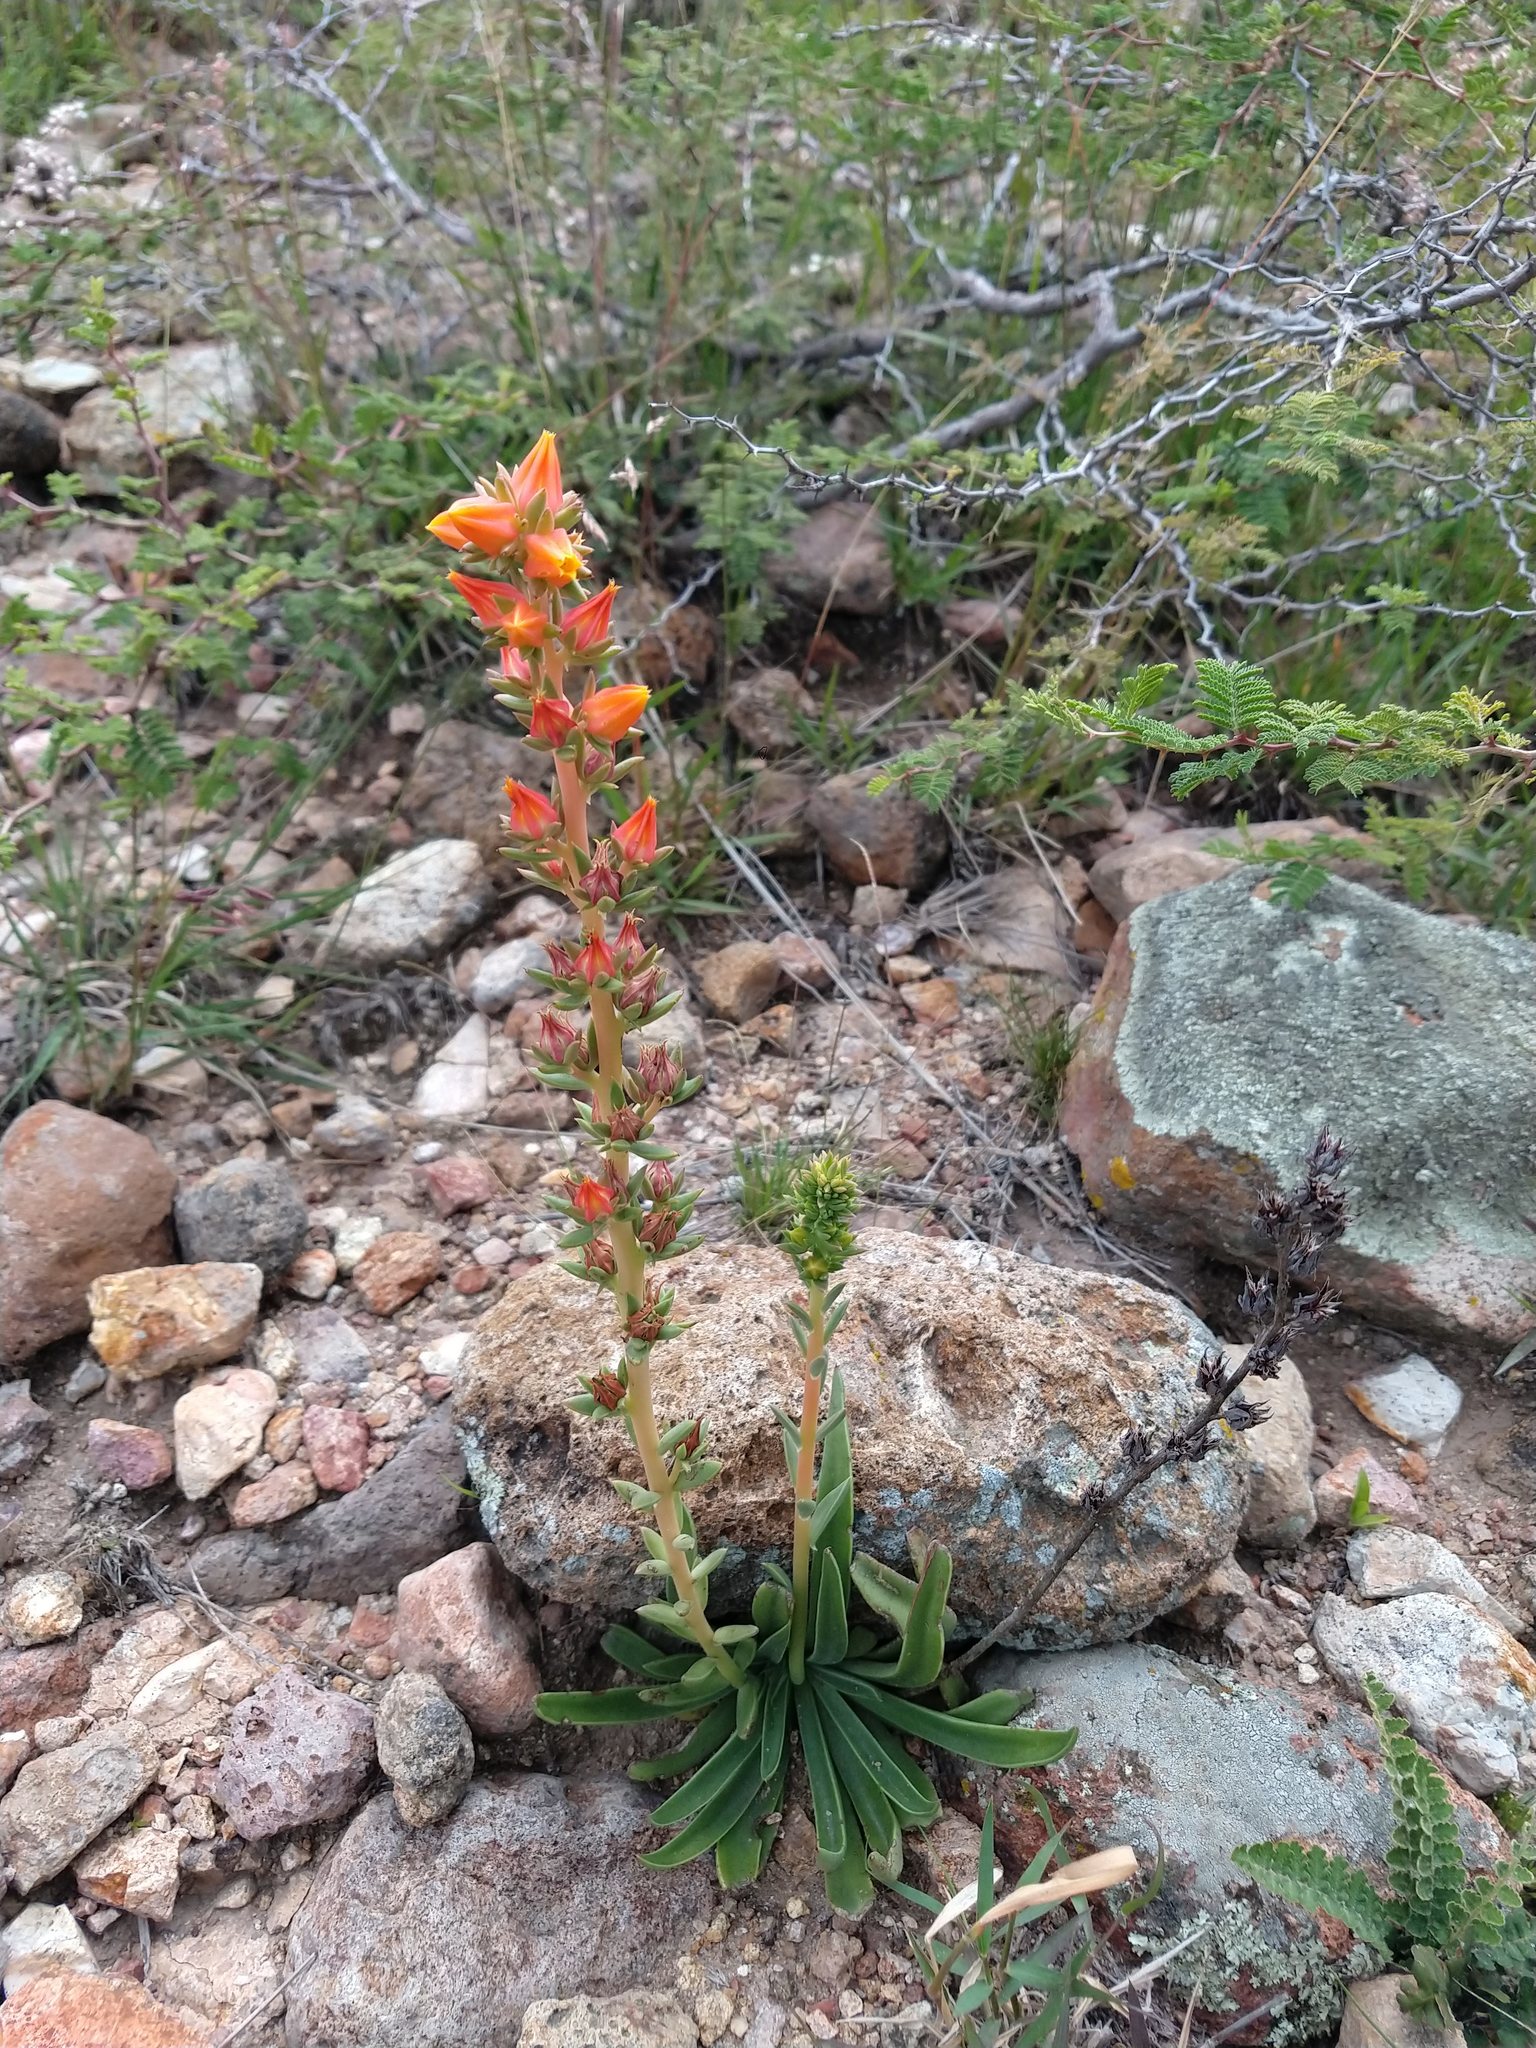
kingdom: Plantae
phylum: Tracheophyta
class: Magnoliopsida
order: Saxifragales
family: Crassulaceae
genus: Echeveria
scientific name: Echeveria mucronata
